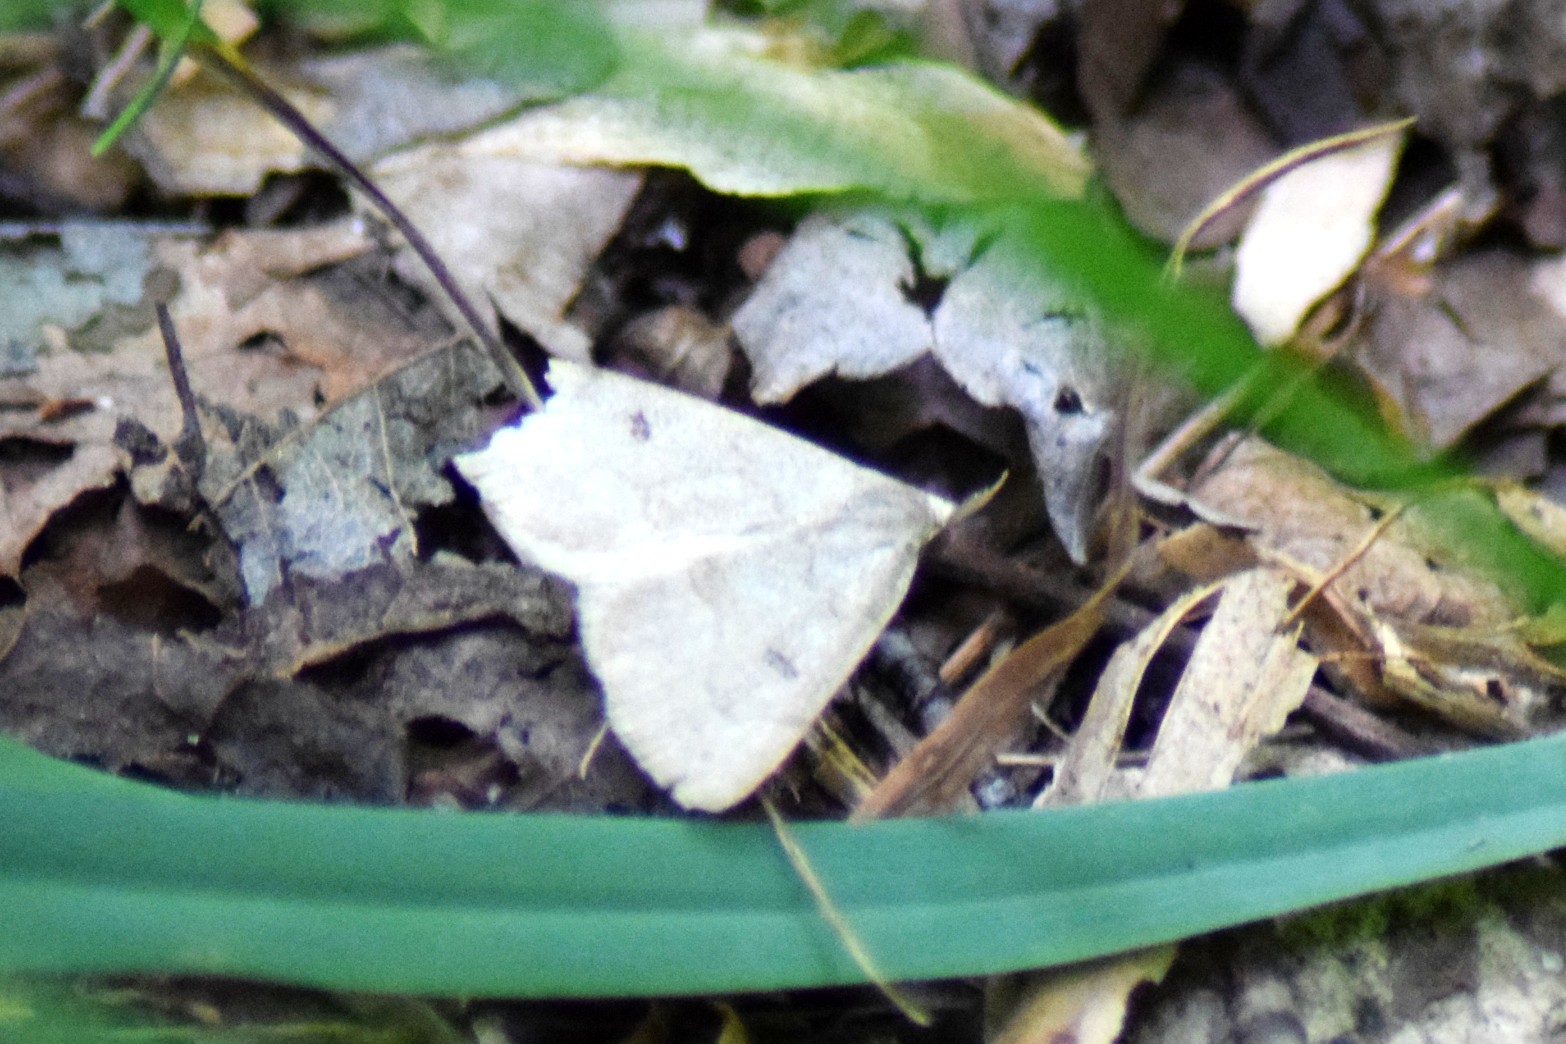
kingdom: Animalia
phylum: Arthropoda
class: Insecta
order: Lepidoptera
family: Erebidae
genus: Macrochilo
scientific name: Macrochilo morbidalis
